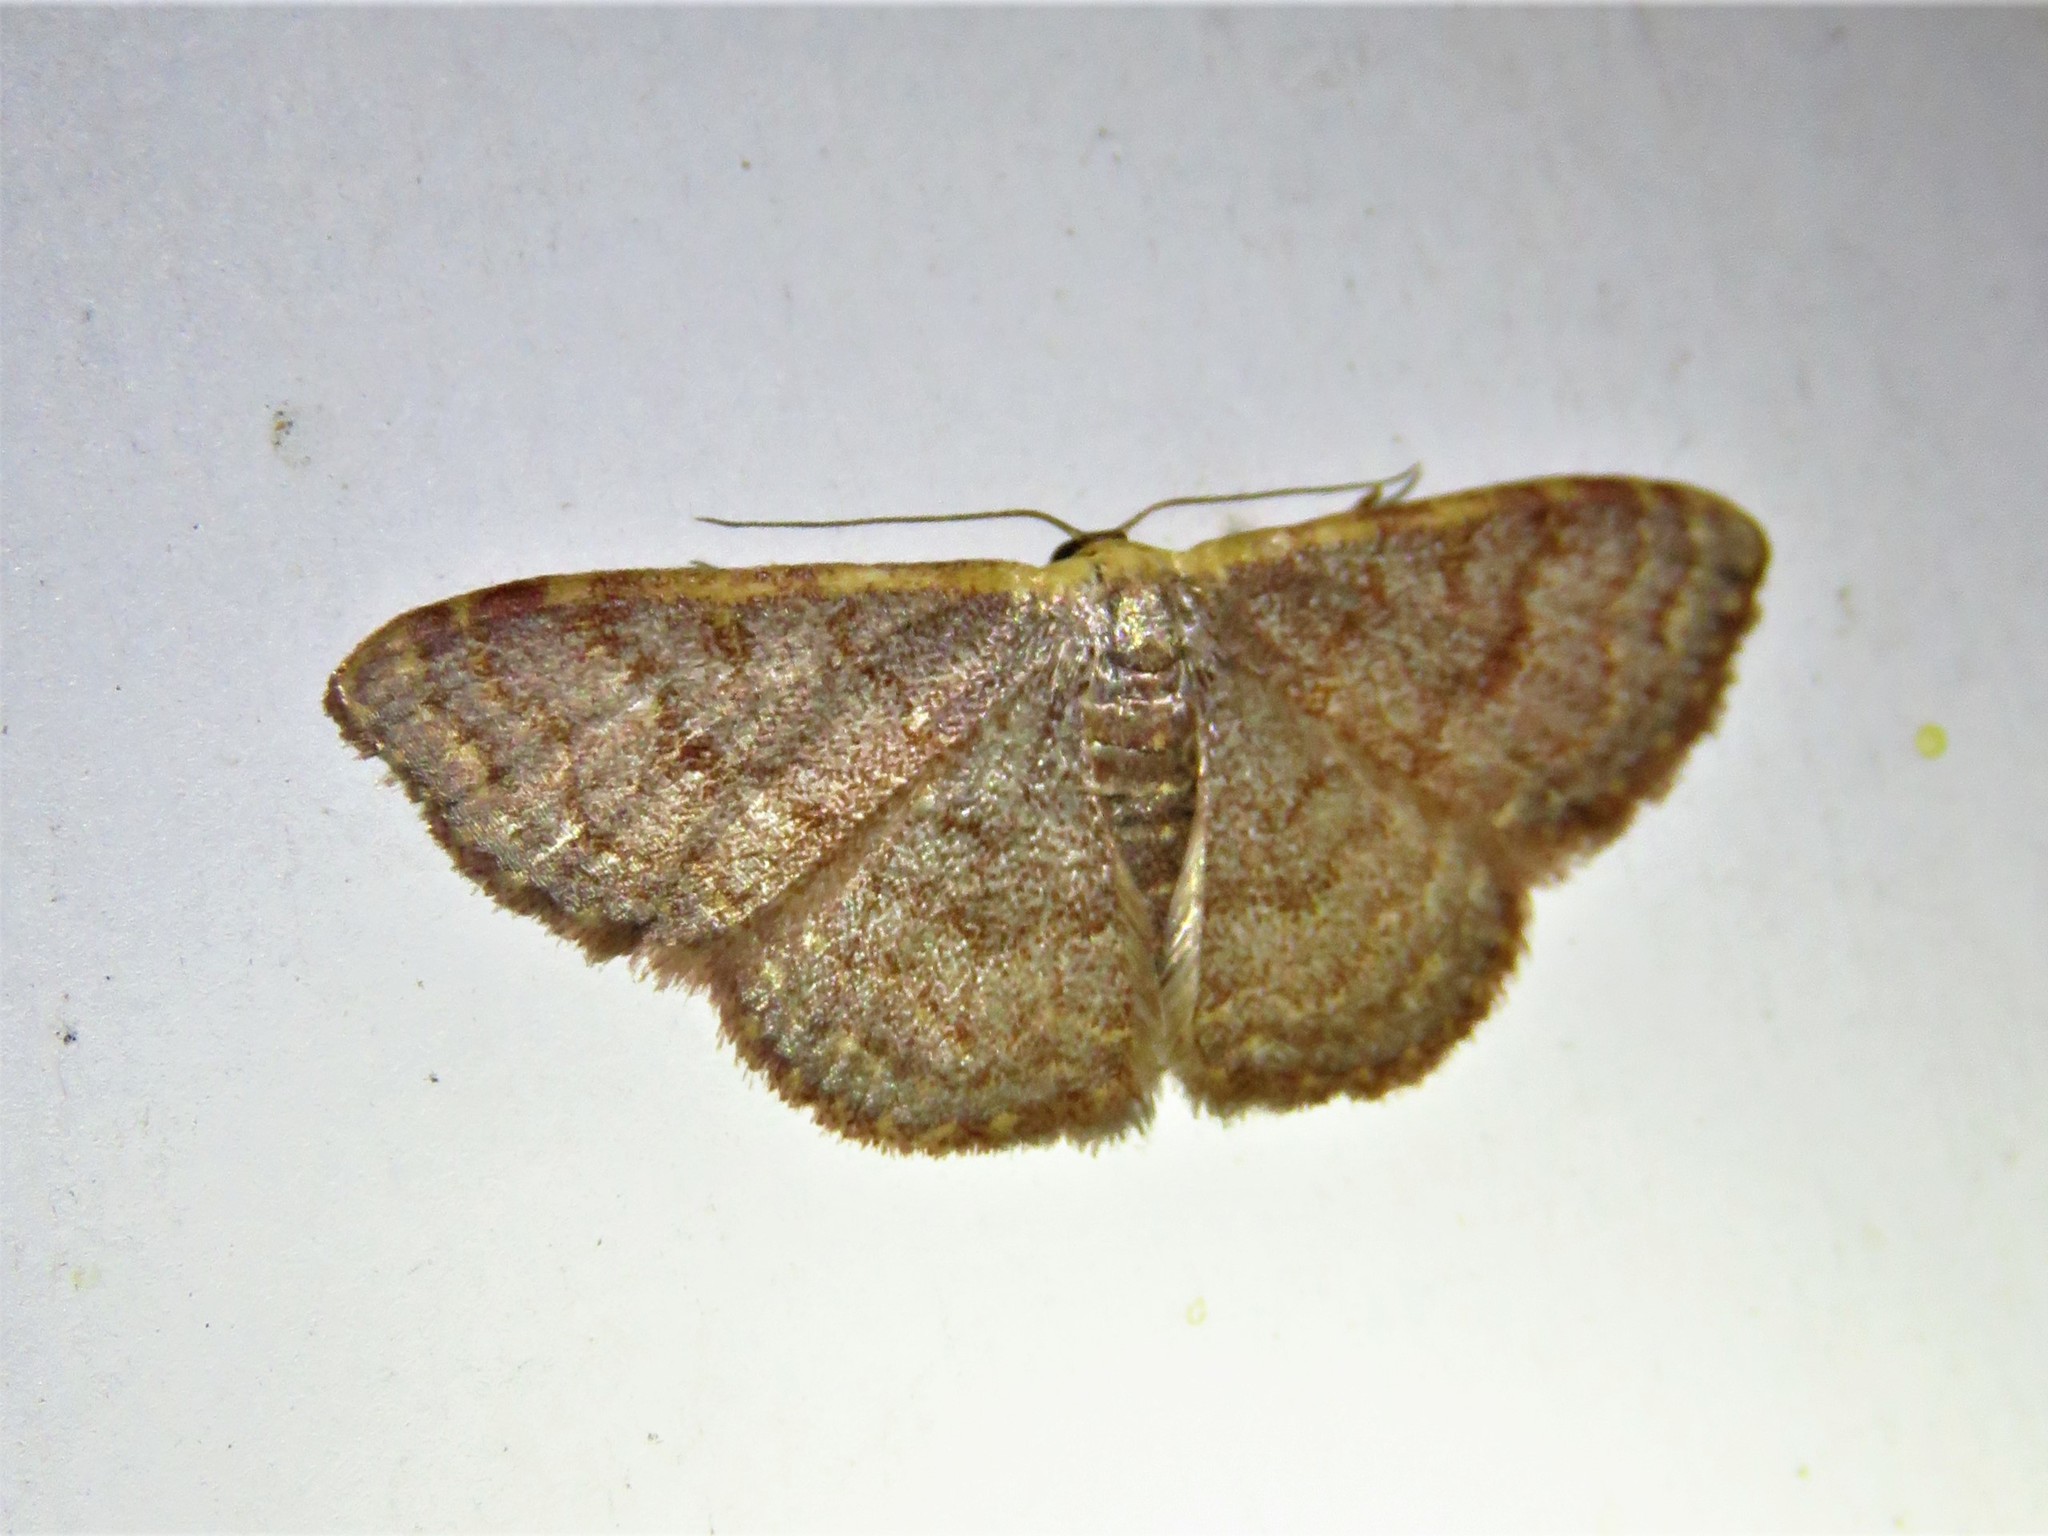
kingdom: Animalia
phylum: Arthropoda
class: Insecta
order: Lepidoptera
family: Geometridae
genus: Leptostales
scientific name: Leptostales pannaria
